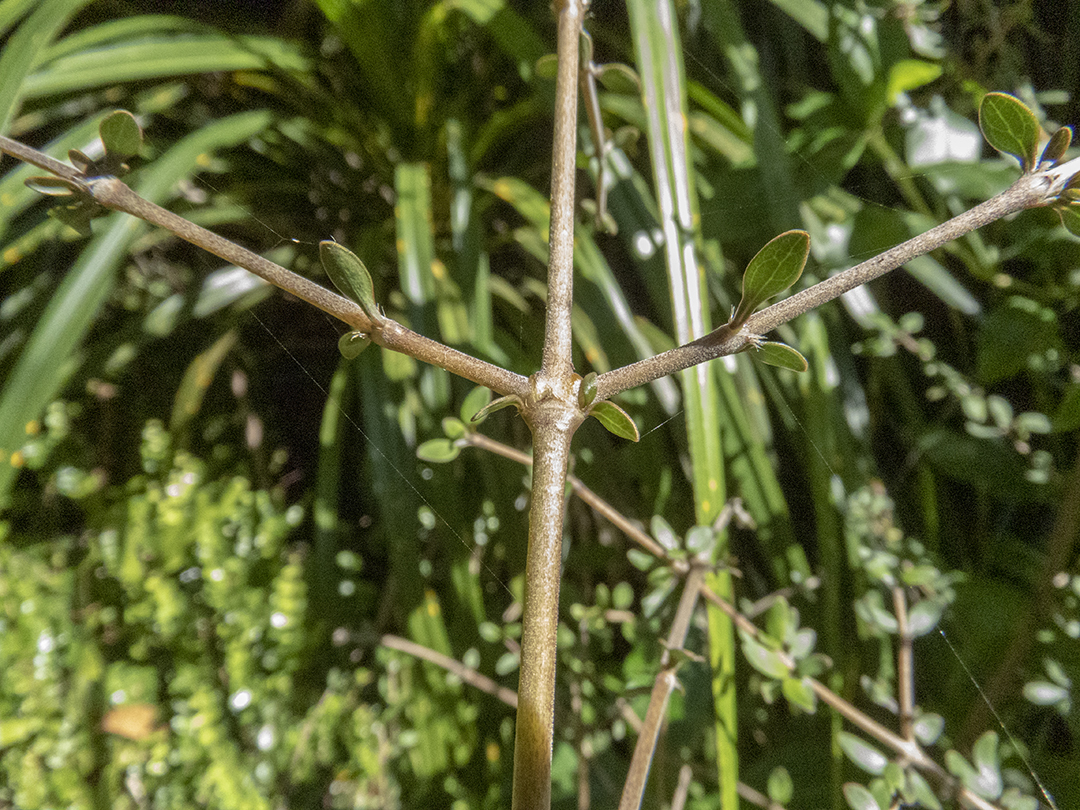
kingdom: Plantae
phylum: Tracheophyta
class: Magnoliopsida
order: Gentianales
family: Rubiaceae
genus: Coprosma
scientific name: Coprosma propinqua
